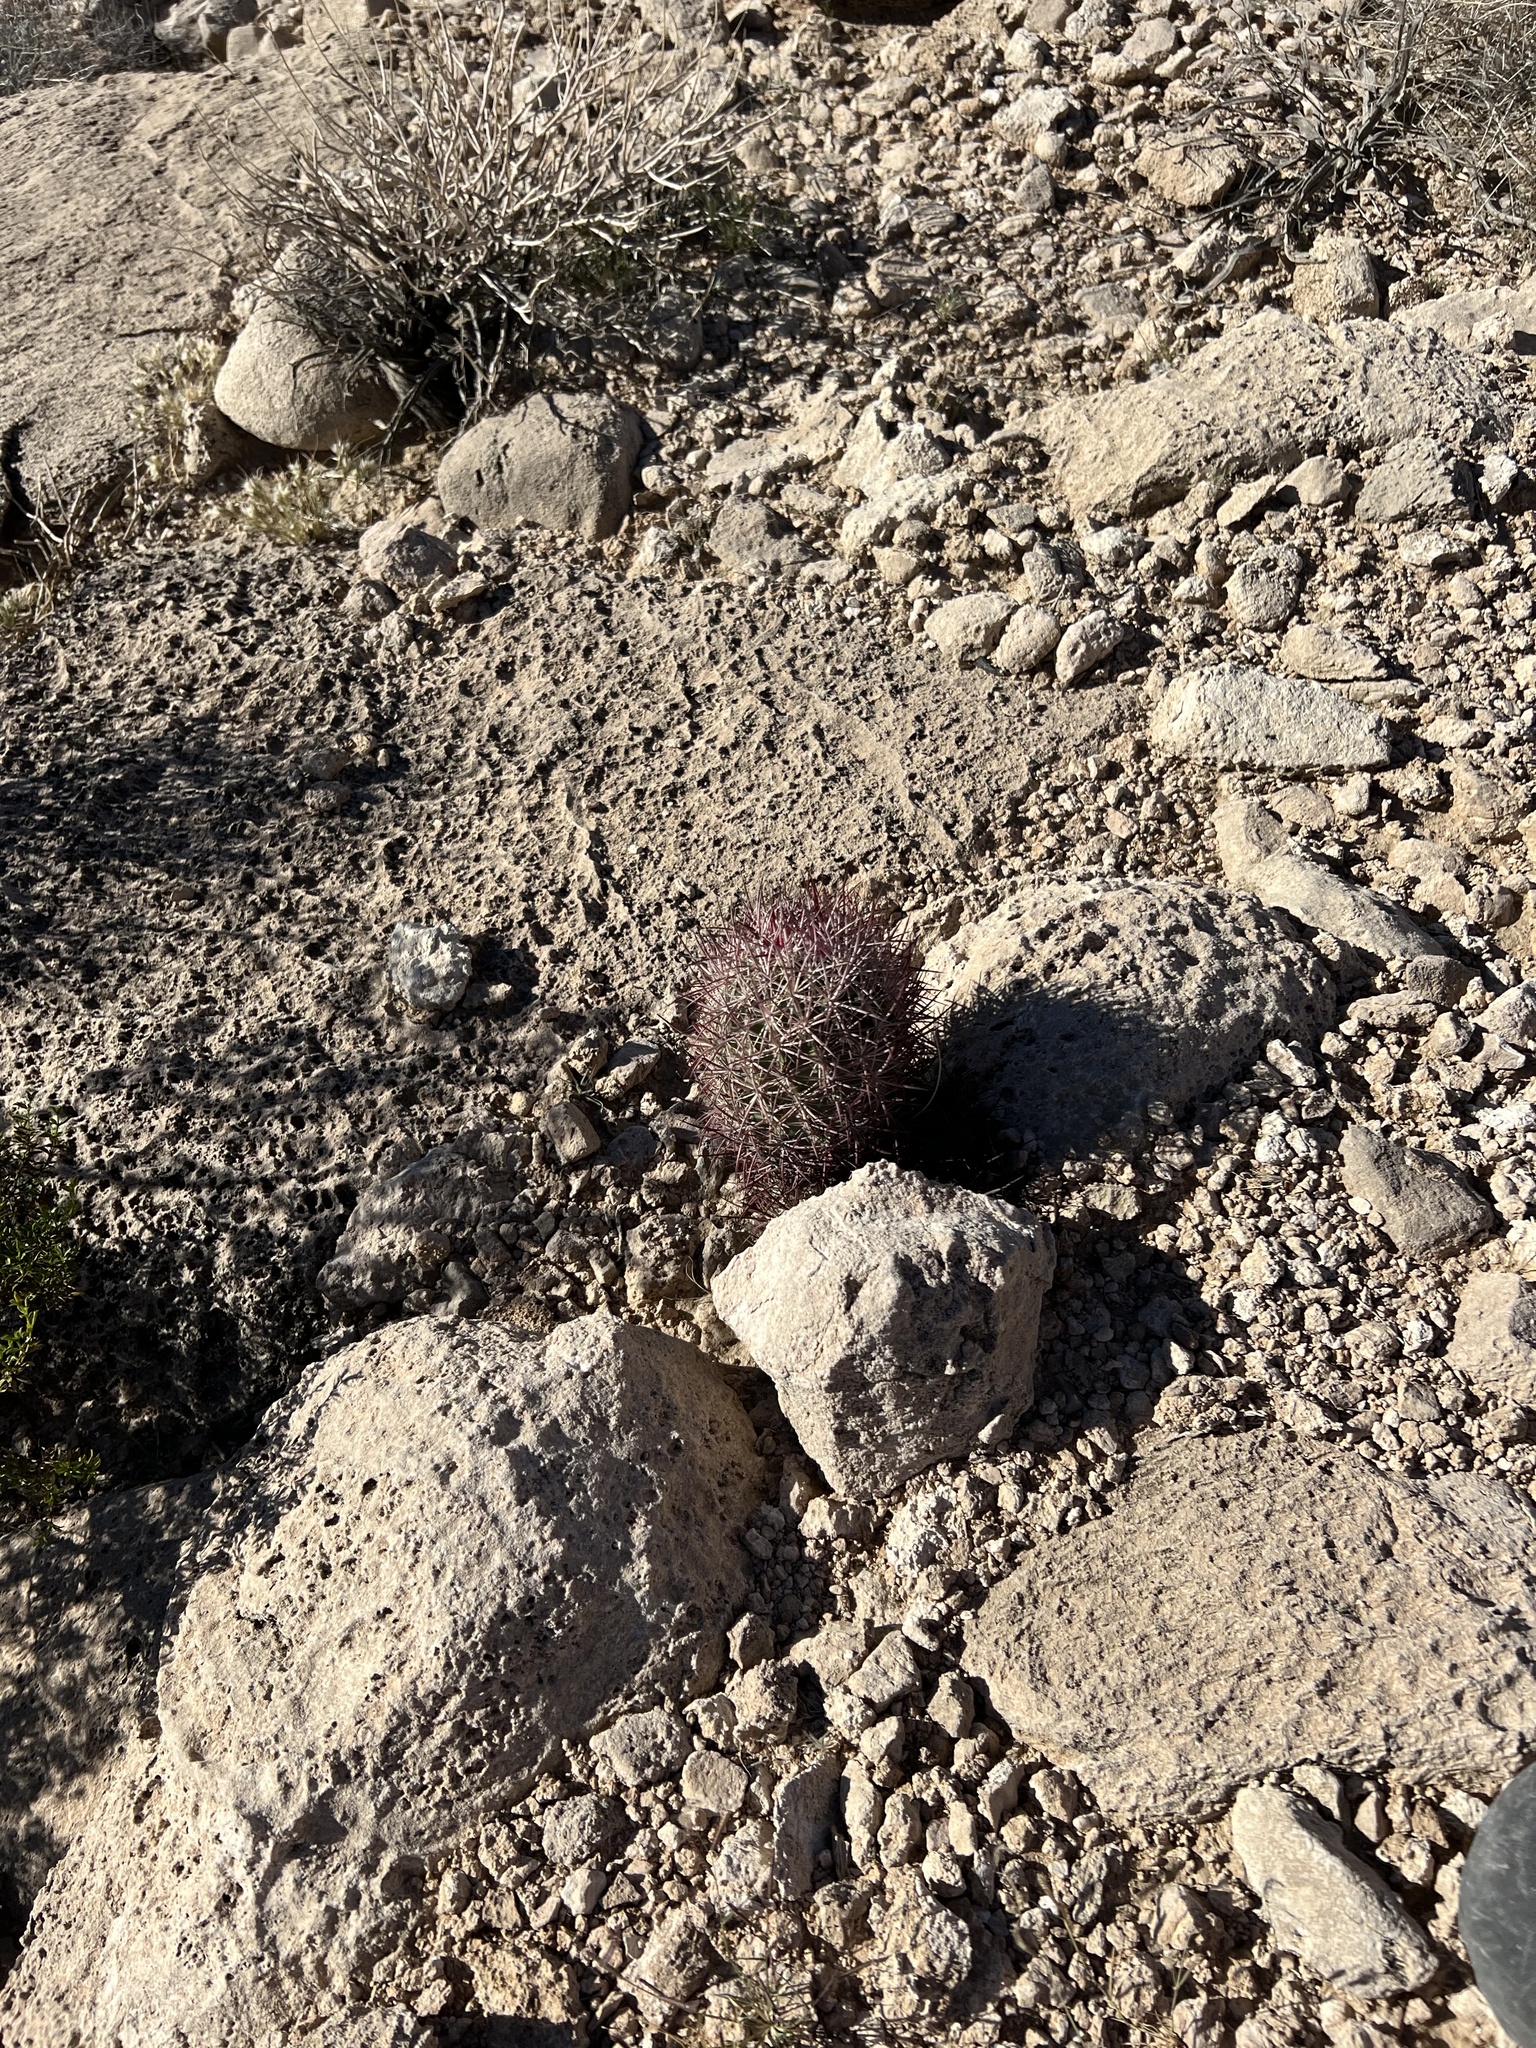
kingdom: Plantae
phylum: Tracheophyta
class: Magnoliopsida
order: Caryophyllales
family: Cactaceae
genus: Sclerocactus
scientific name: Sclerocactus johnsonii
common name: Eight-spine fishhook cactus
